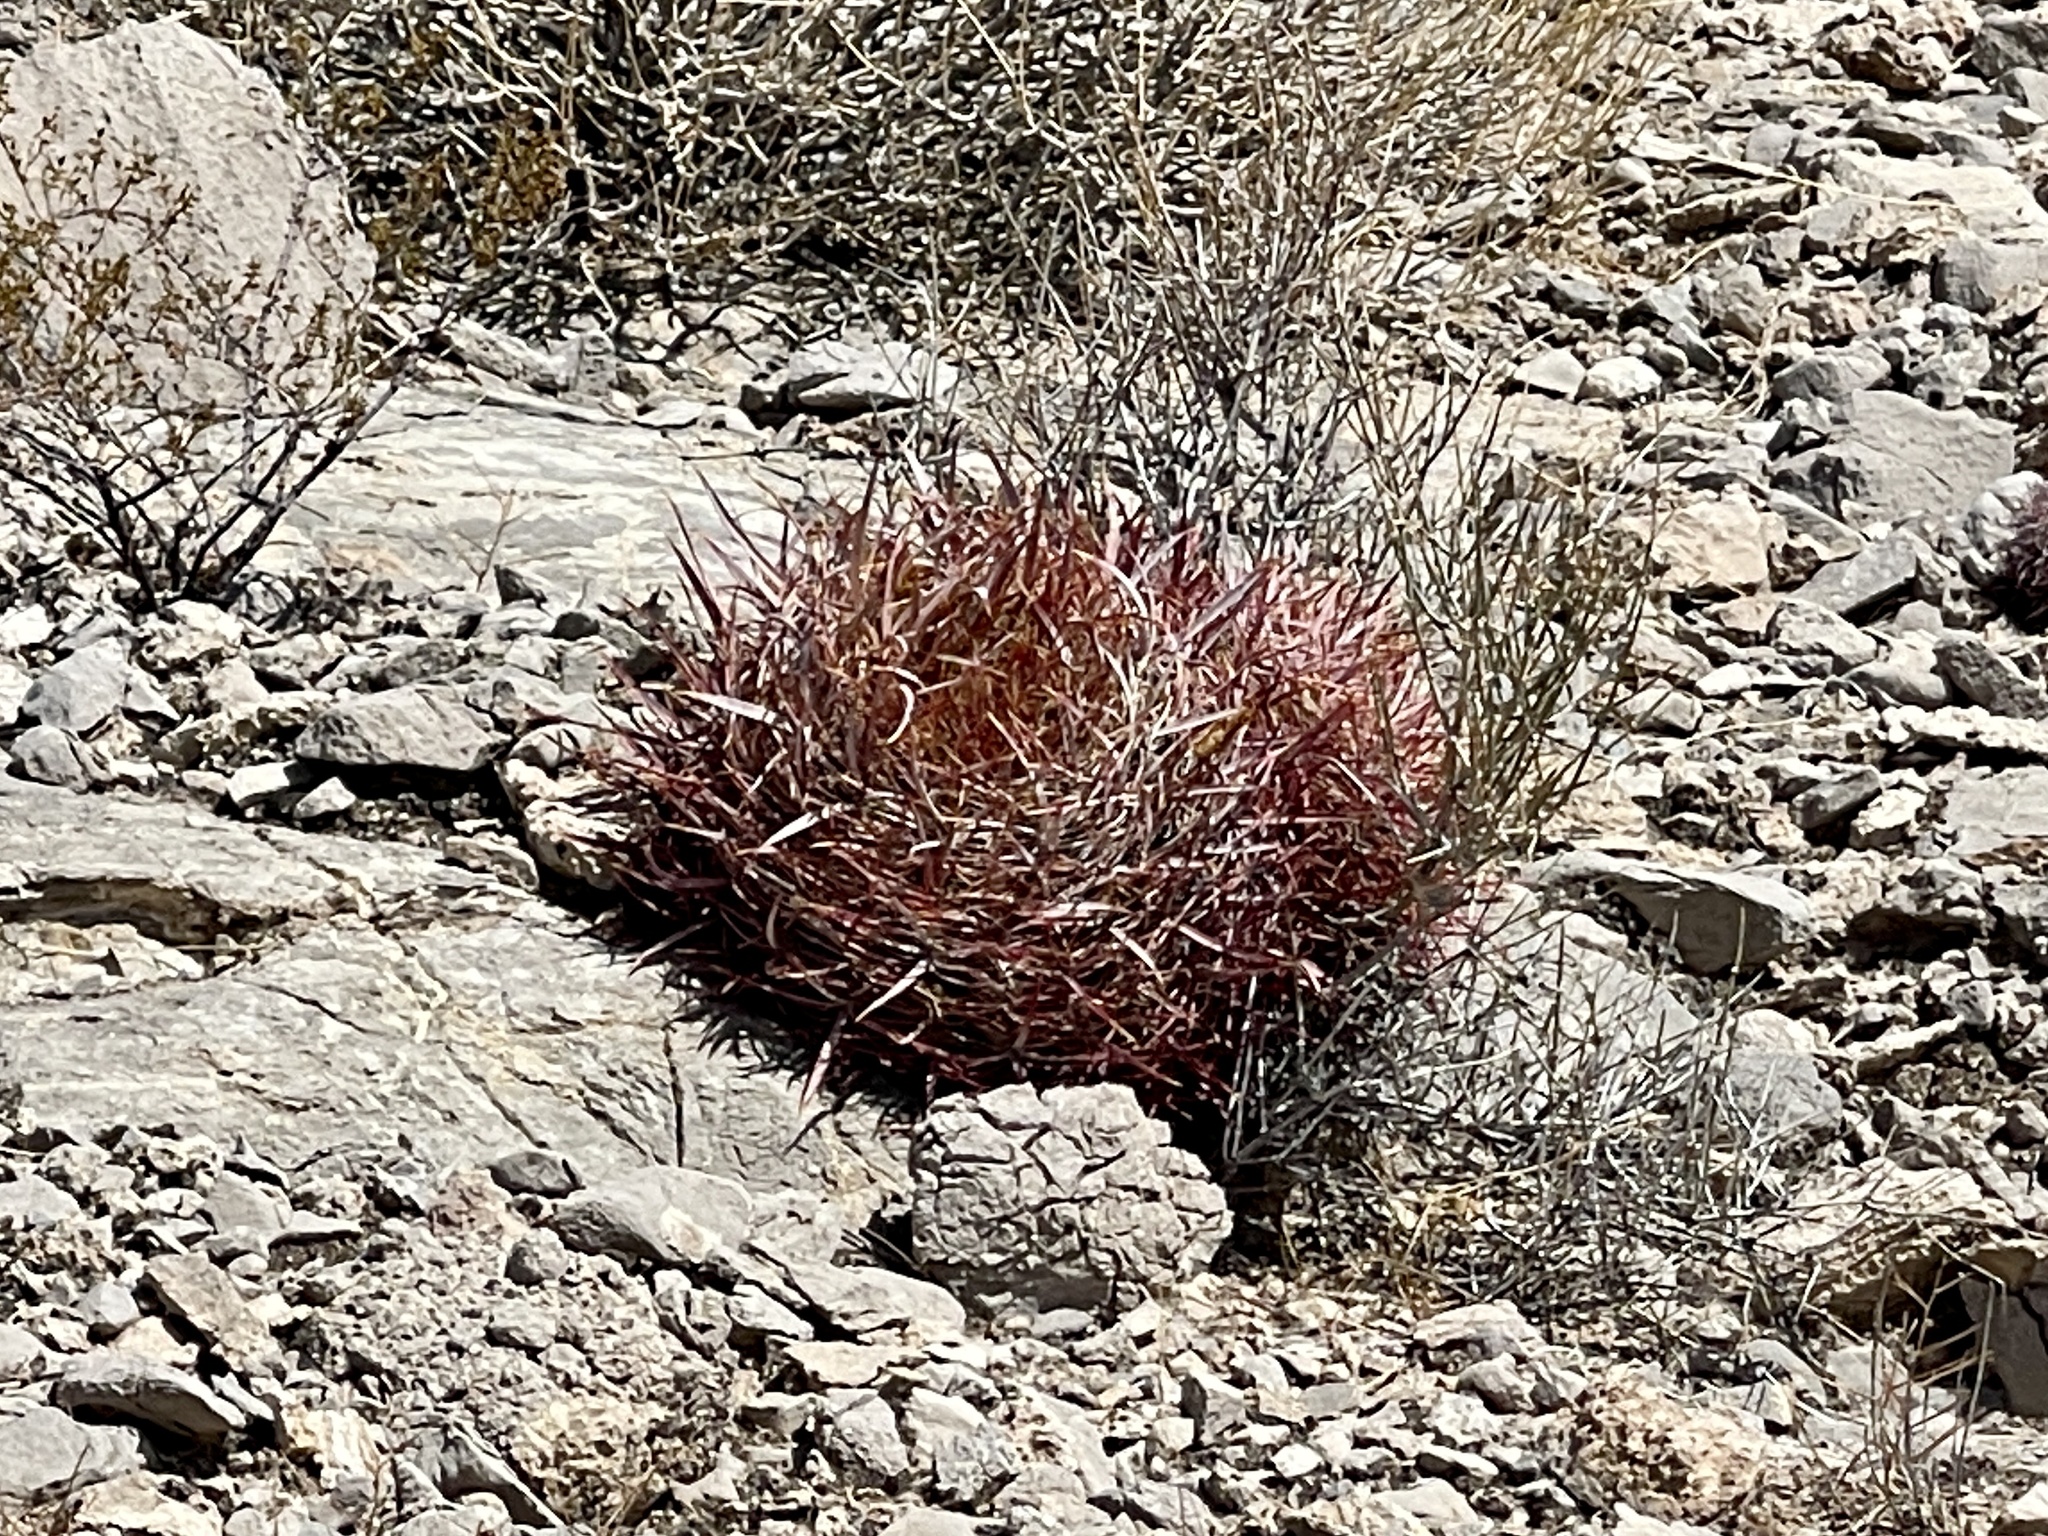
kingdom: Plantae
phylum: Tracheophyta
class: Magnoliopsida
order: Caryophyllales
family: Cactaceae
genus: Ferocactus
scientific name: Ferocactus cylindraceus
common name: California barrel cactus
